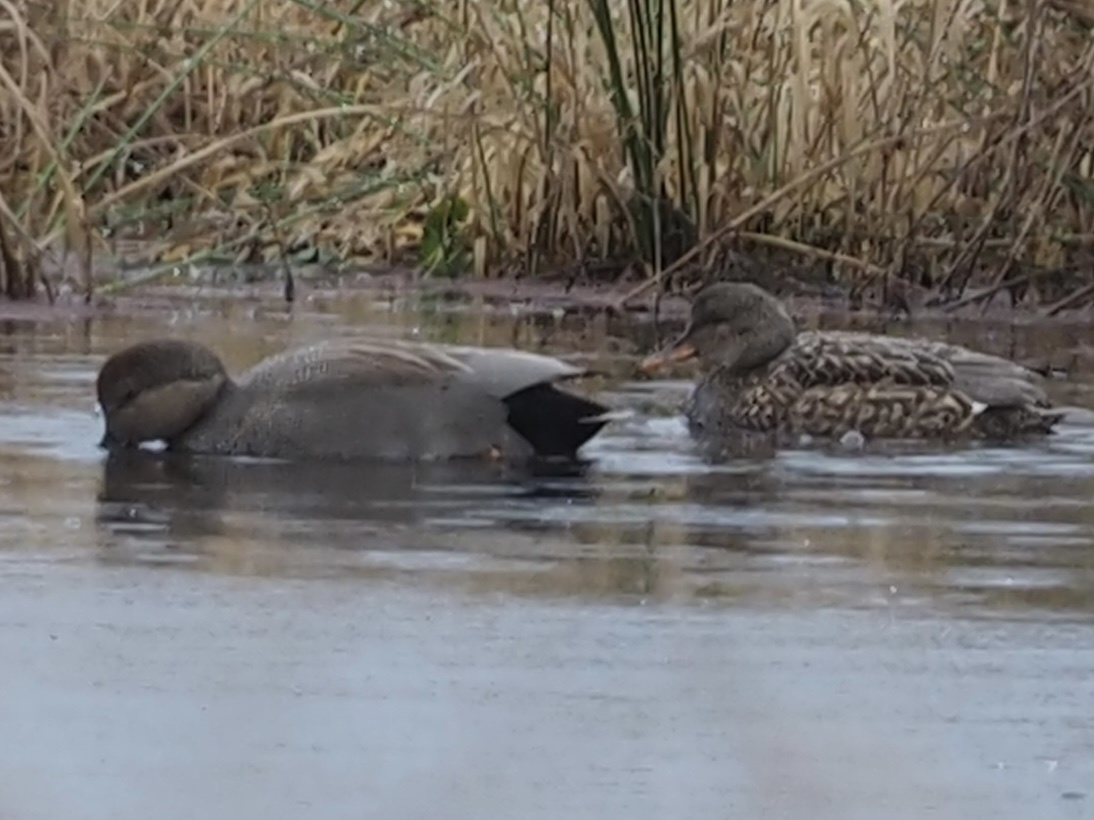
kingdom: Animalia
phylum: Chordata
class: Aves
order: Anseriformes
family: Anatidae
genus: Mareca
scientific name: Mareca strepera
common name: Gadwall
